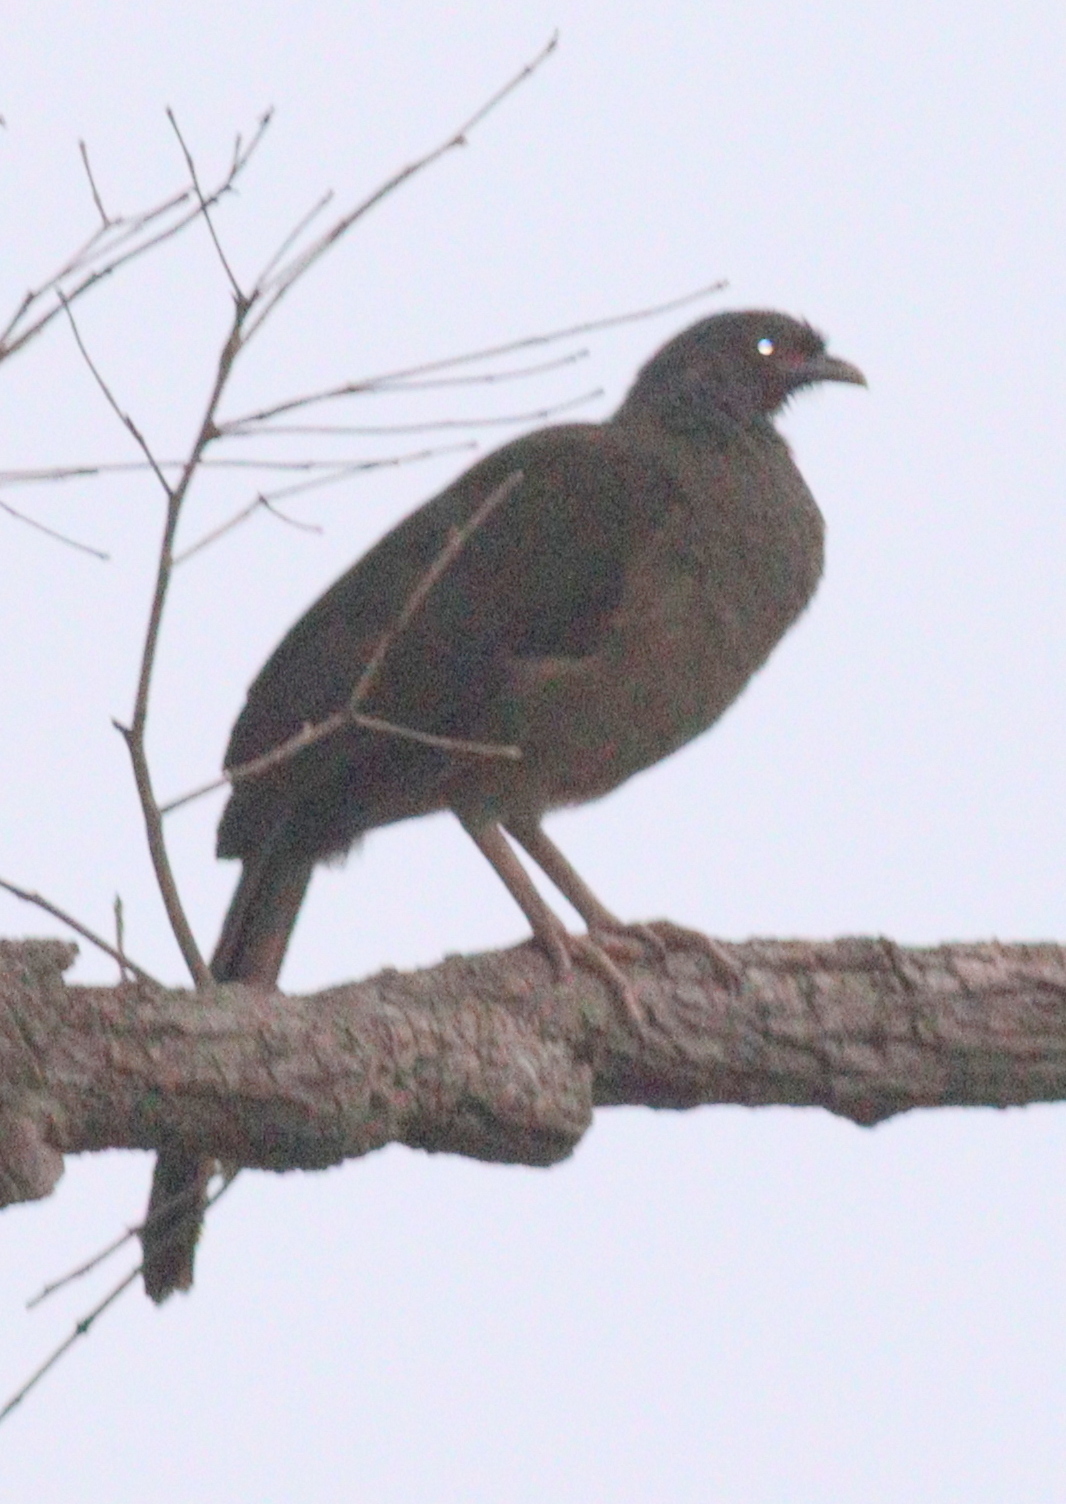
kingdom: Animalia
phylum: Chordata
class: Aves
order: Galliformes
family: Cracidae
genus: Ortalis
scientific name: Ortalis canicollis
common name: Chaco chachalaca
